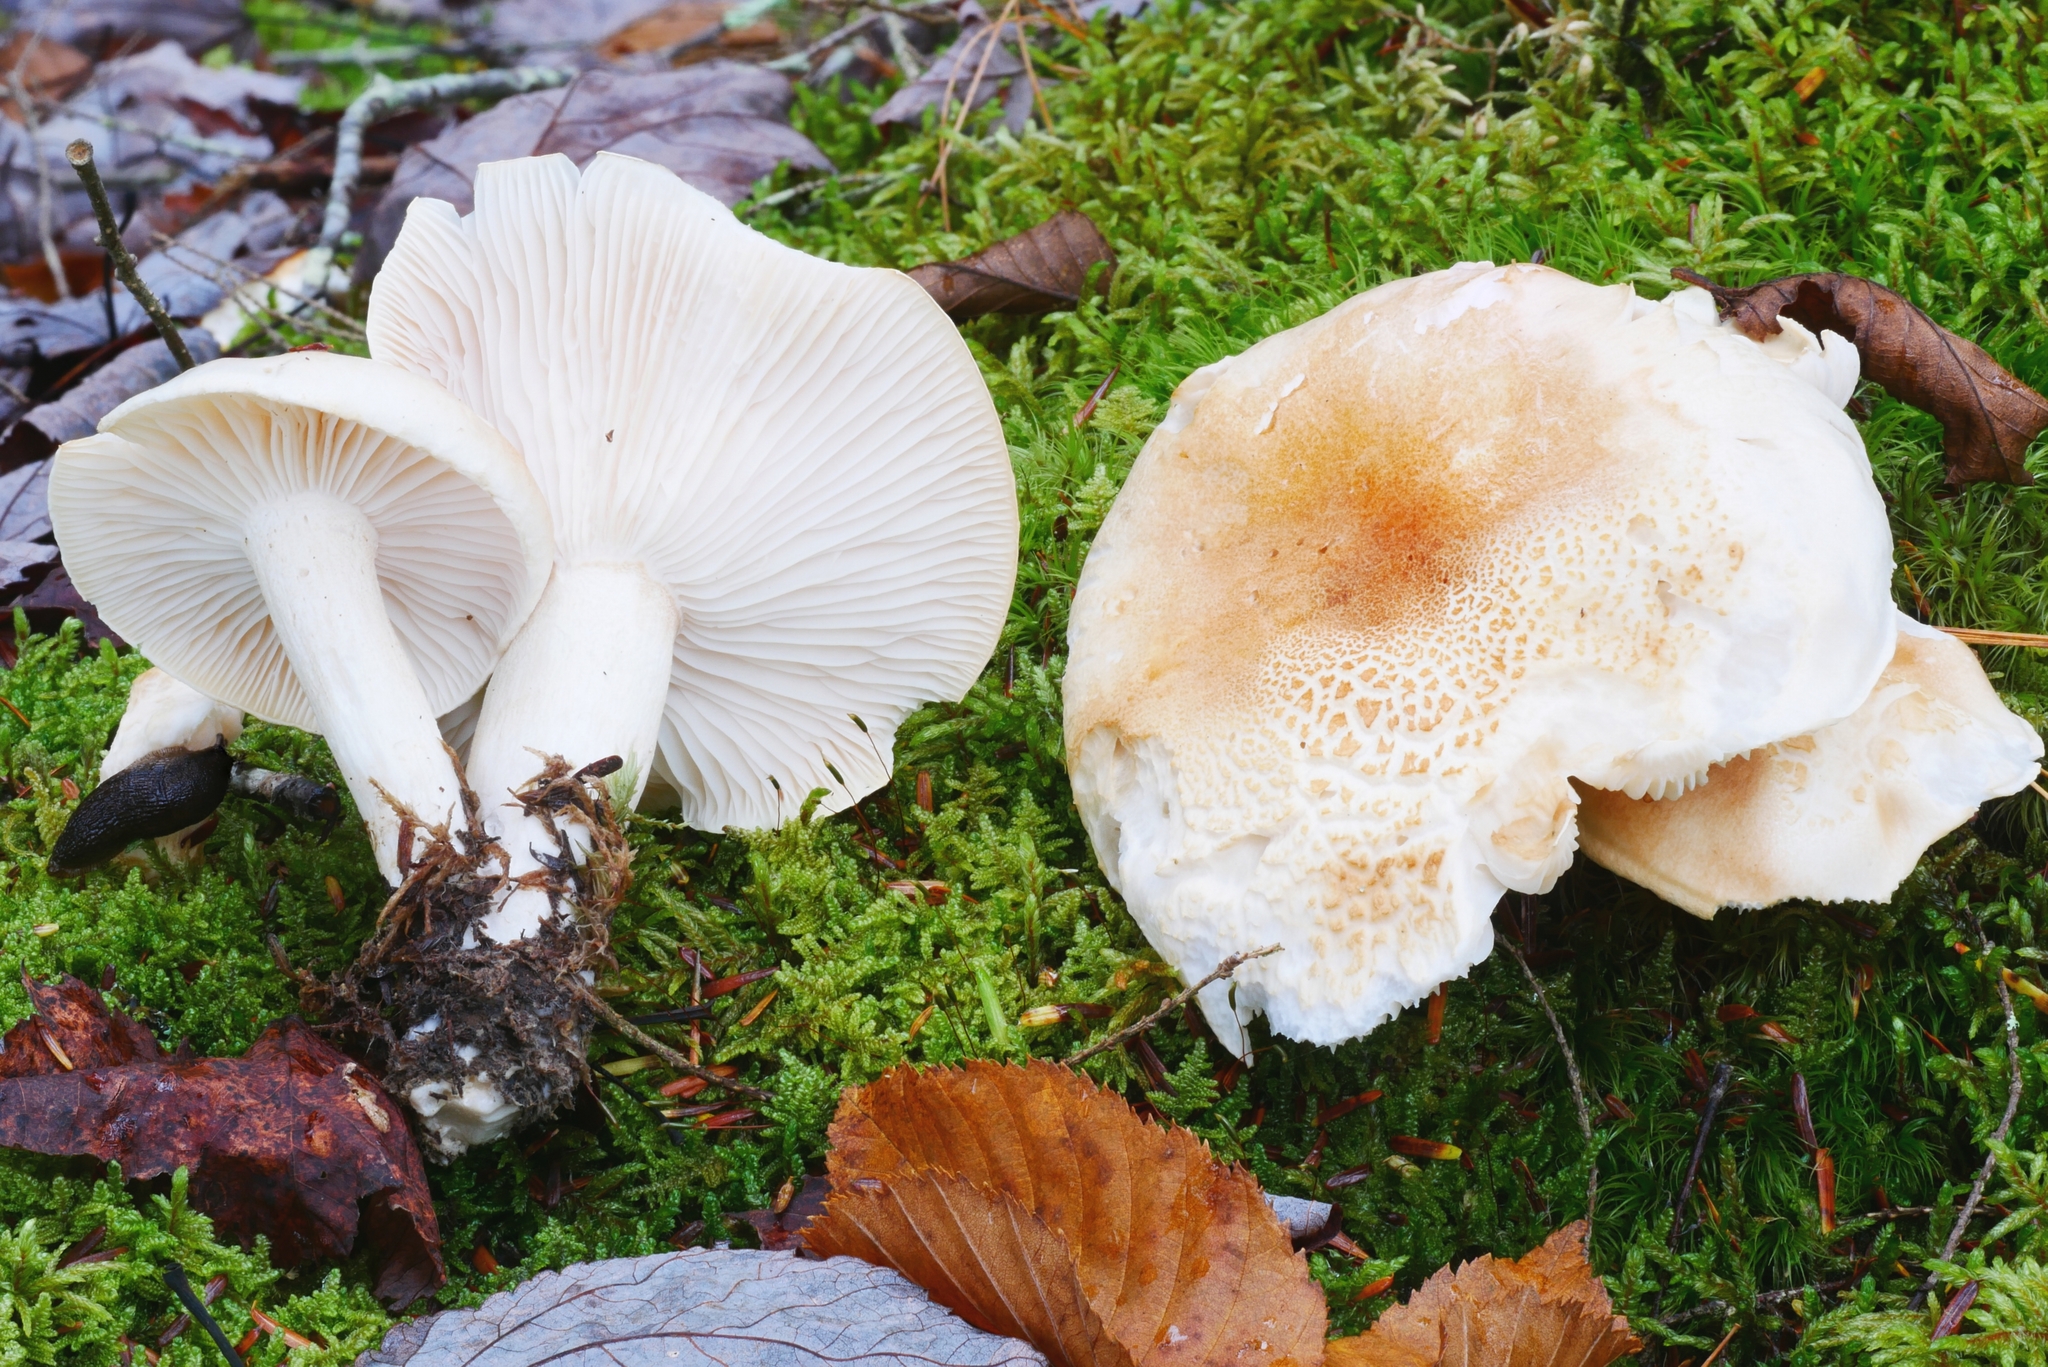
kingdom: Fungi
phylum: Basidiomycota
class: Agaricomycetes
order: Agaricales
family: Hygrophoraceae
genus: Hygrophorus
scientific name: Hygrophorus tennesseensis
